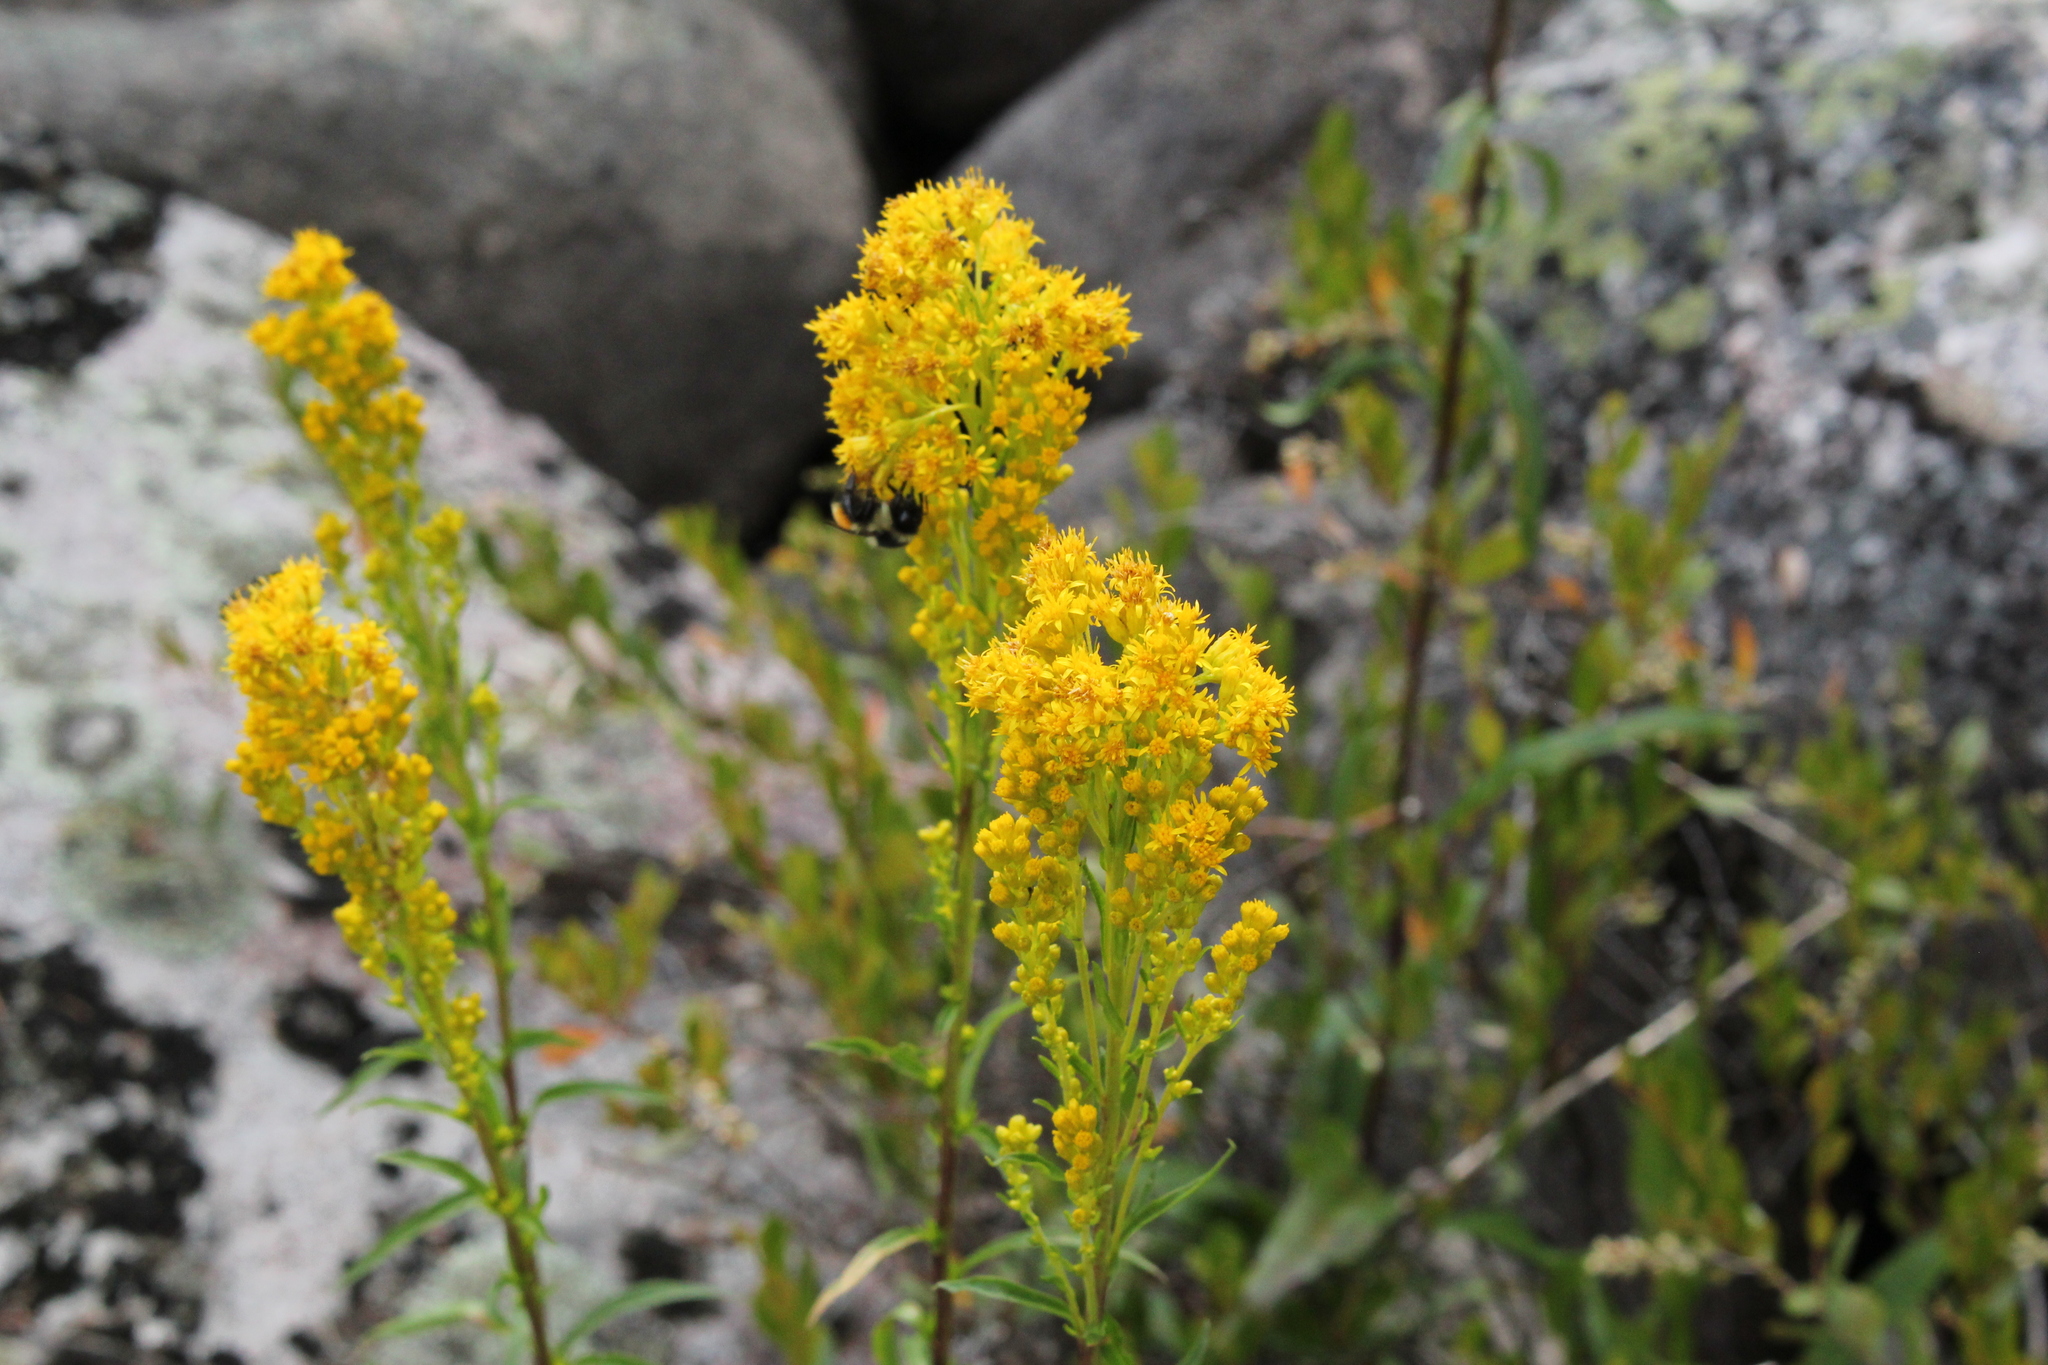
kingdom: Plantae
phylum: Tracheophyta
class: Magnoliopsida
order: Asterales
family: Asteraceae
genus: Solidago
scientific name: Solidago uliginosa
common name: Bog goldenrod
